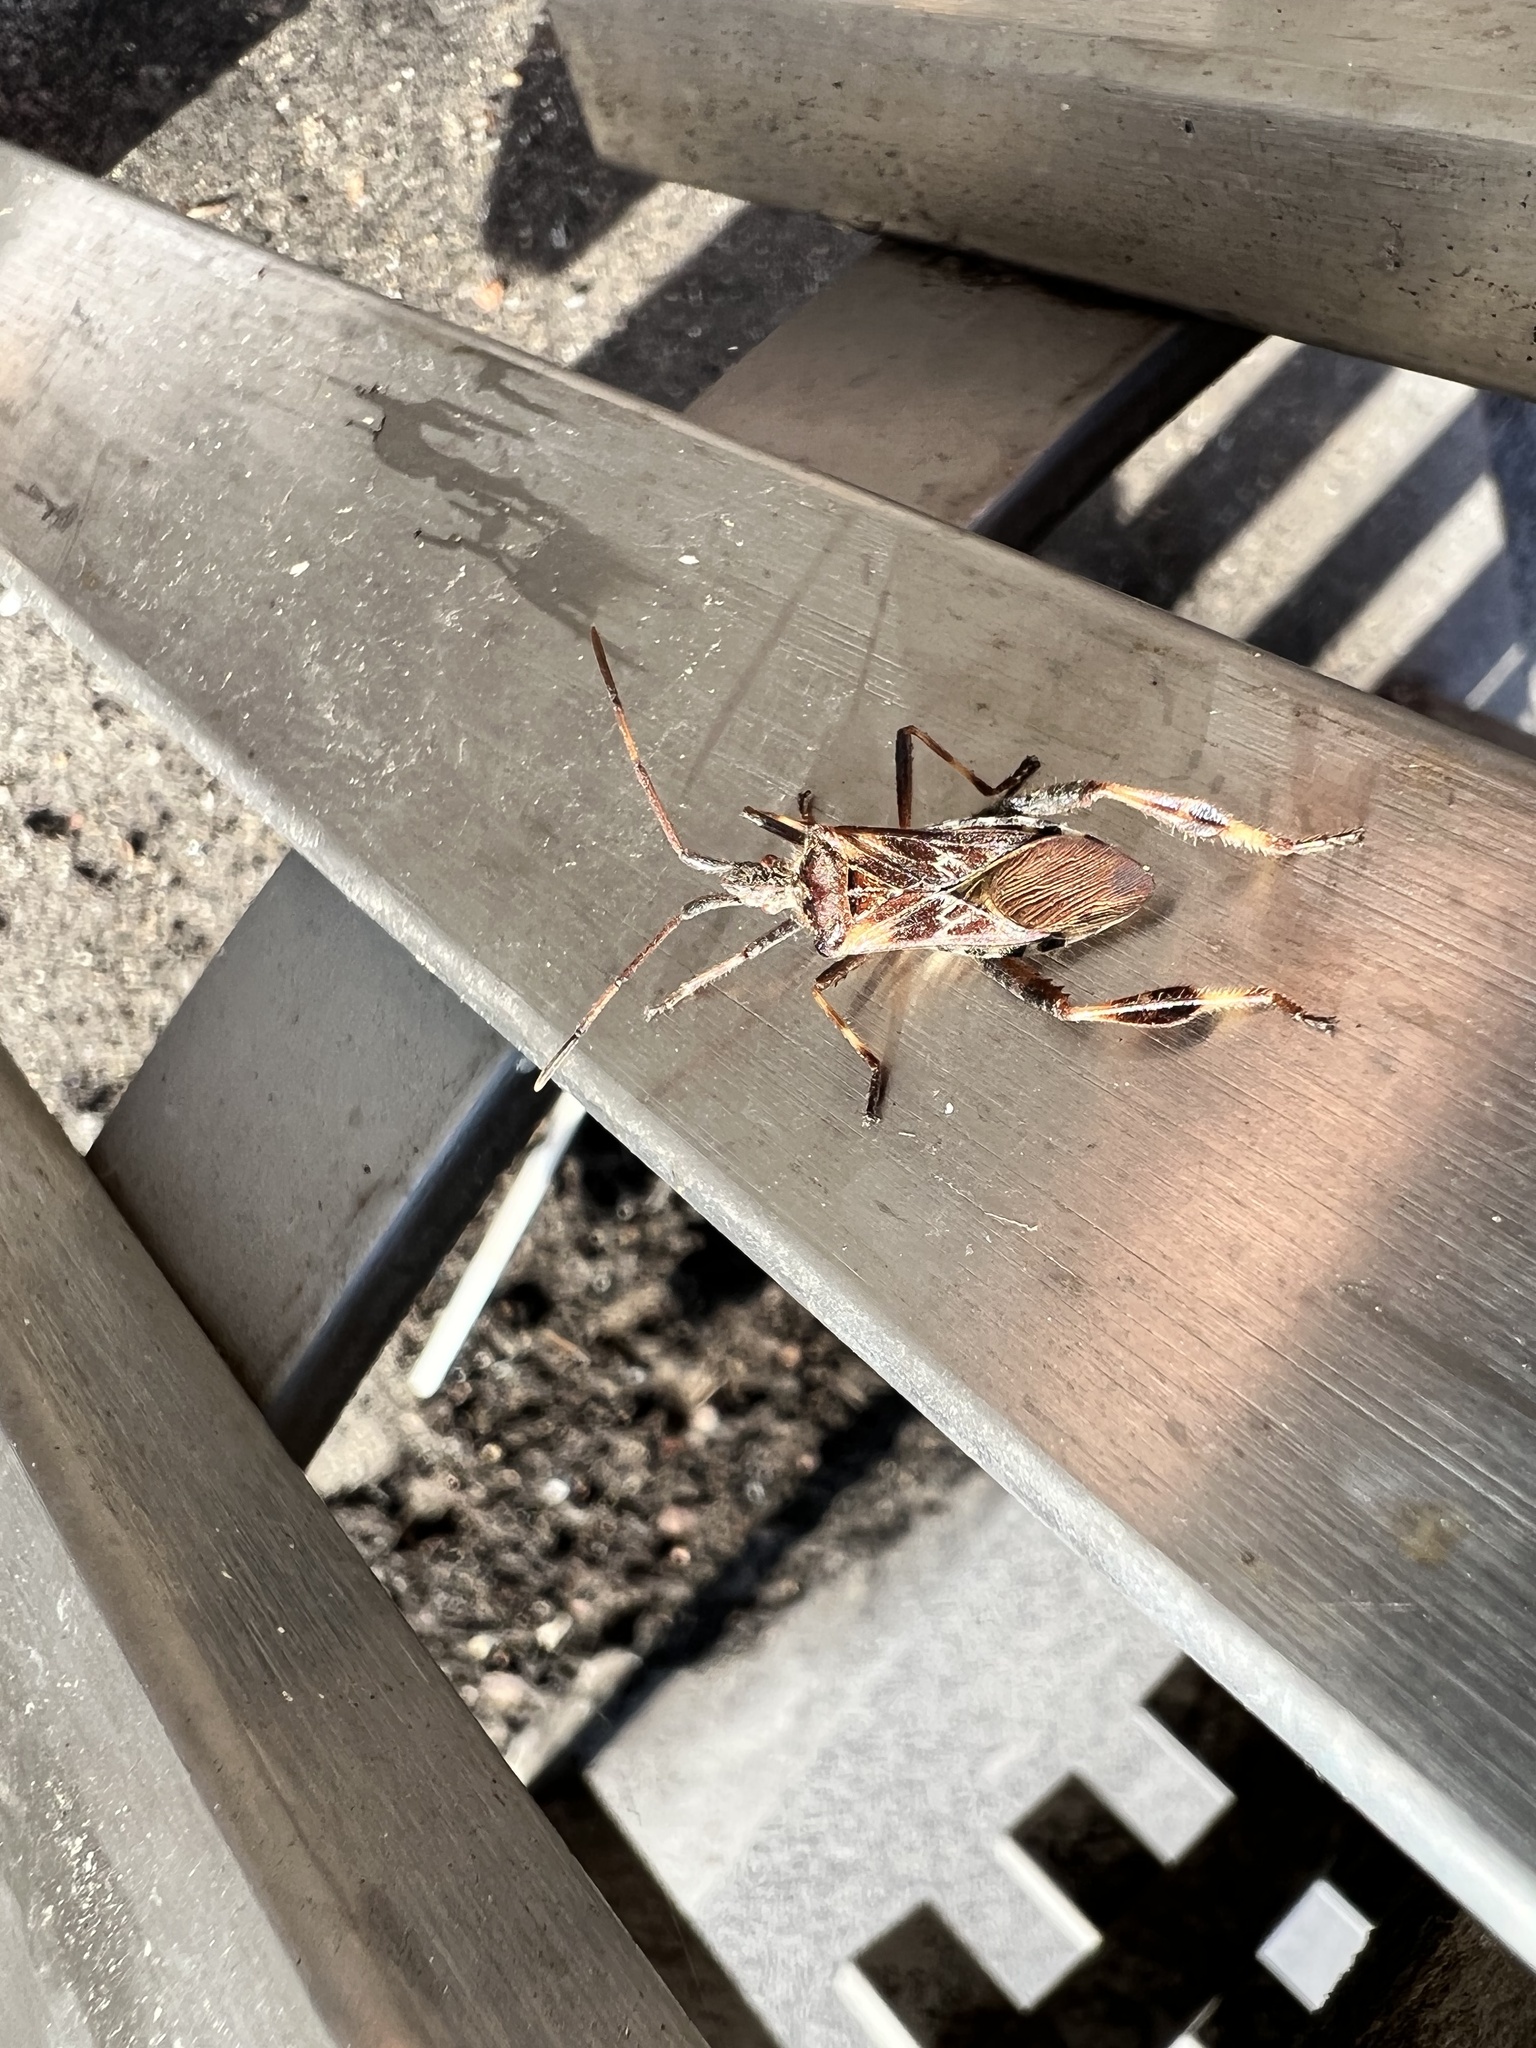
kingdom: Animalia
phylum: Arthropoda
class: Insecta
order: Hemiptera
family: Coreidae
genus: Leptoglossus
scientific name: Leptoglossus occidentalis
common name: Western conifer-seed bug
